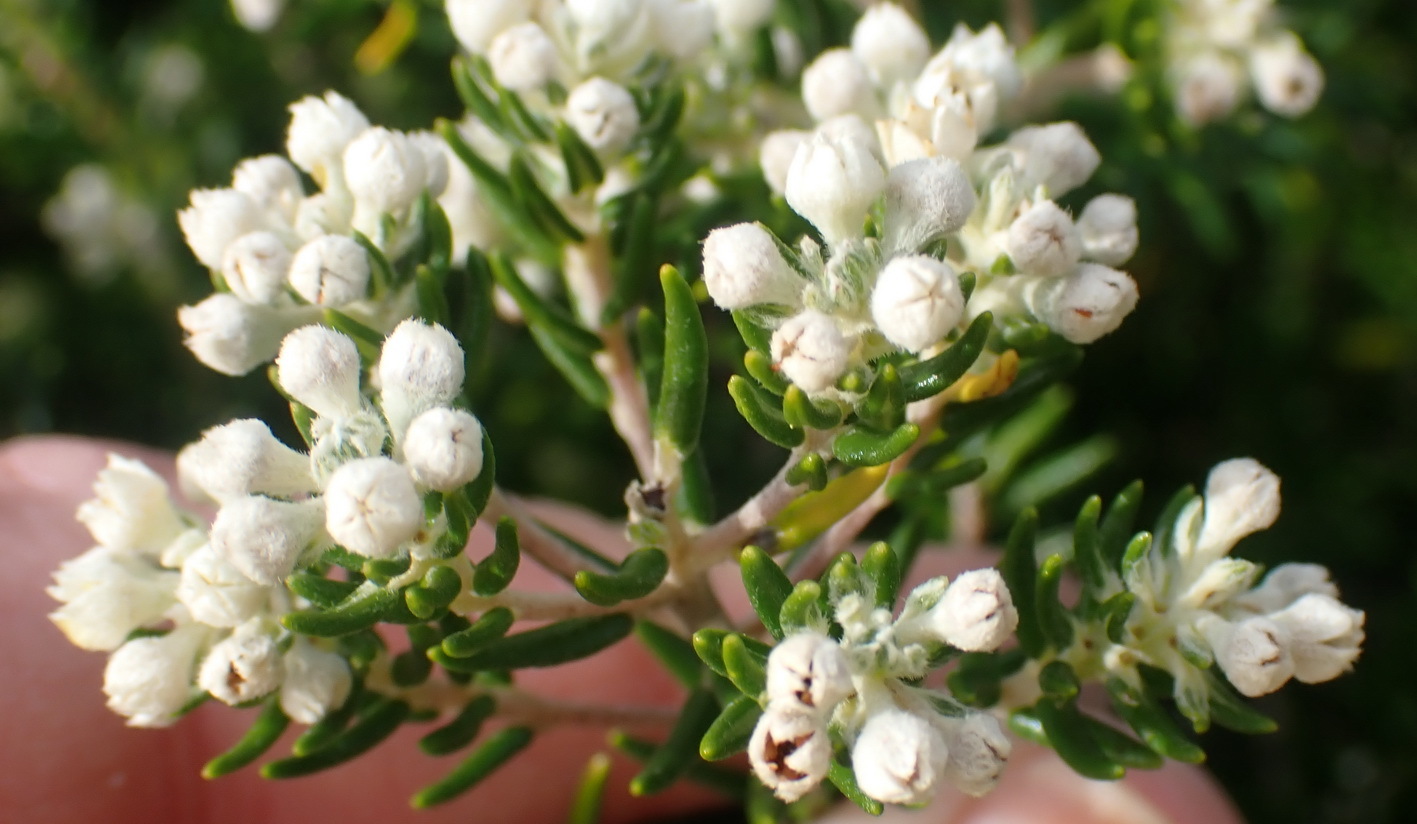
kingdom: Plantae
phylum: Tracheophyta
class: Magnoliopsida
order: Rosales
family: Rhamnaceae
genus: Phylica
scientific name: Phylica axillaris
